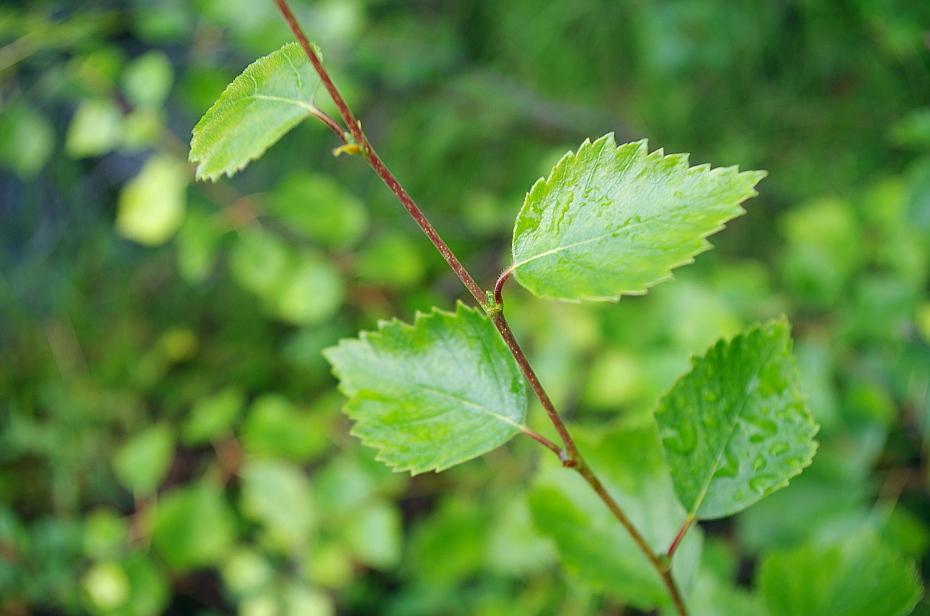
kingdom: Plantae
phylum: Tracheophyta
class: Magnoliopsida
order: Fagales
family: Betulaceae
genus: Betula
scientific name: Betula pendula
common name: Silver birch
